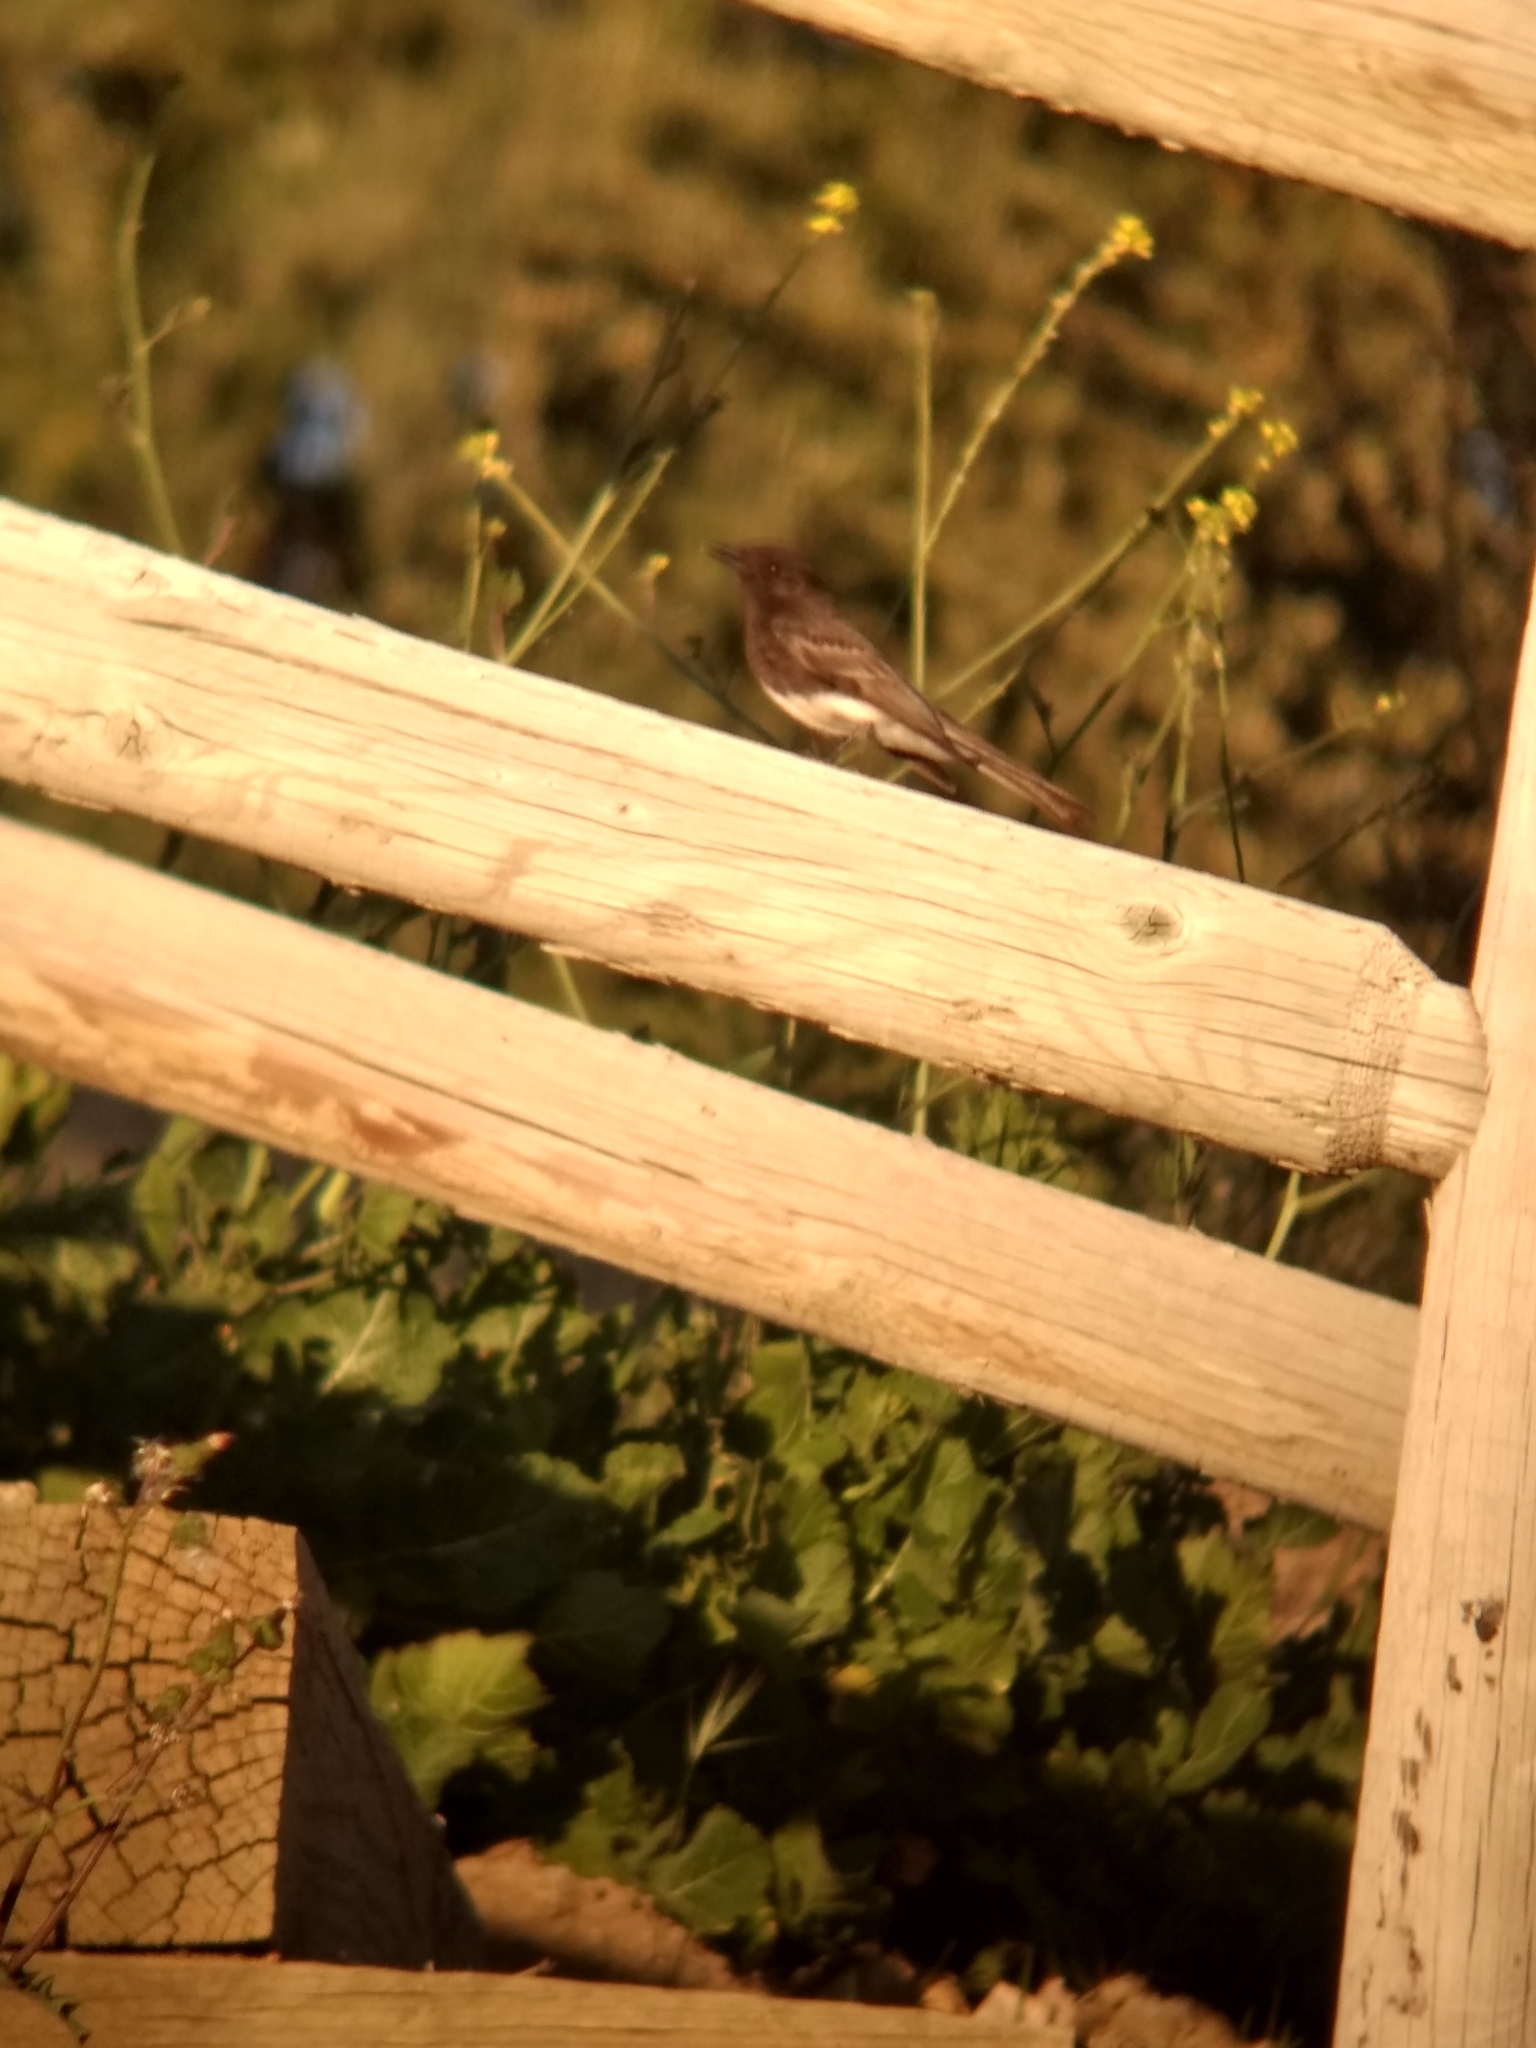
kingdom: Animalia
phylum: Chordata
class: Aves
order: Passeriformes
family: Tyrannidae
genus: Sayornis
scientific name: Sayornis nigricans
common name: Black phoebe
